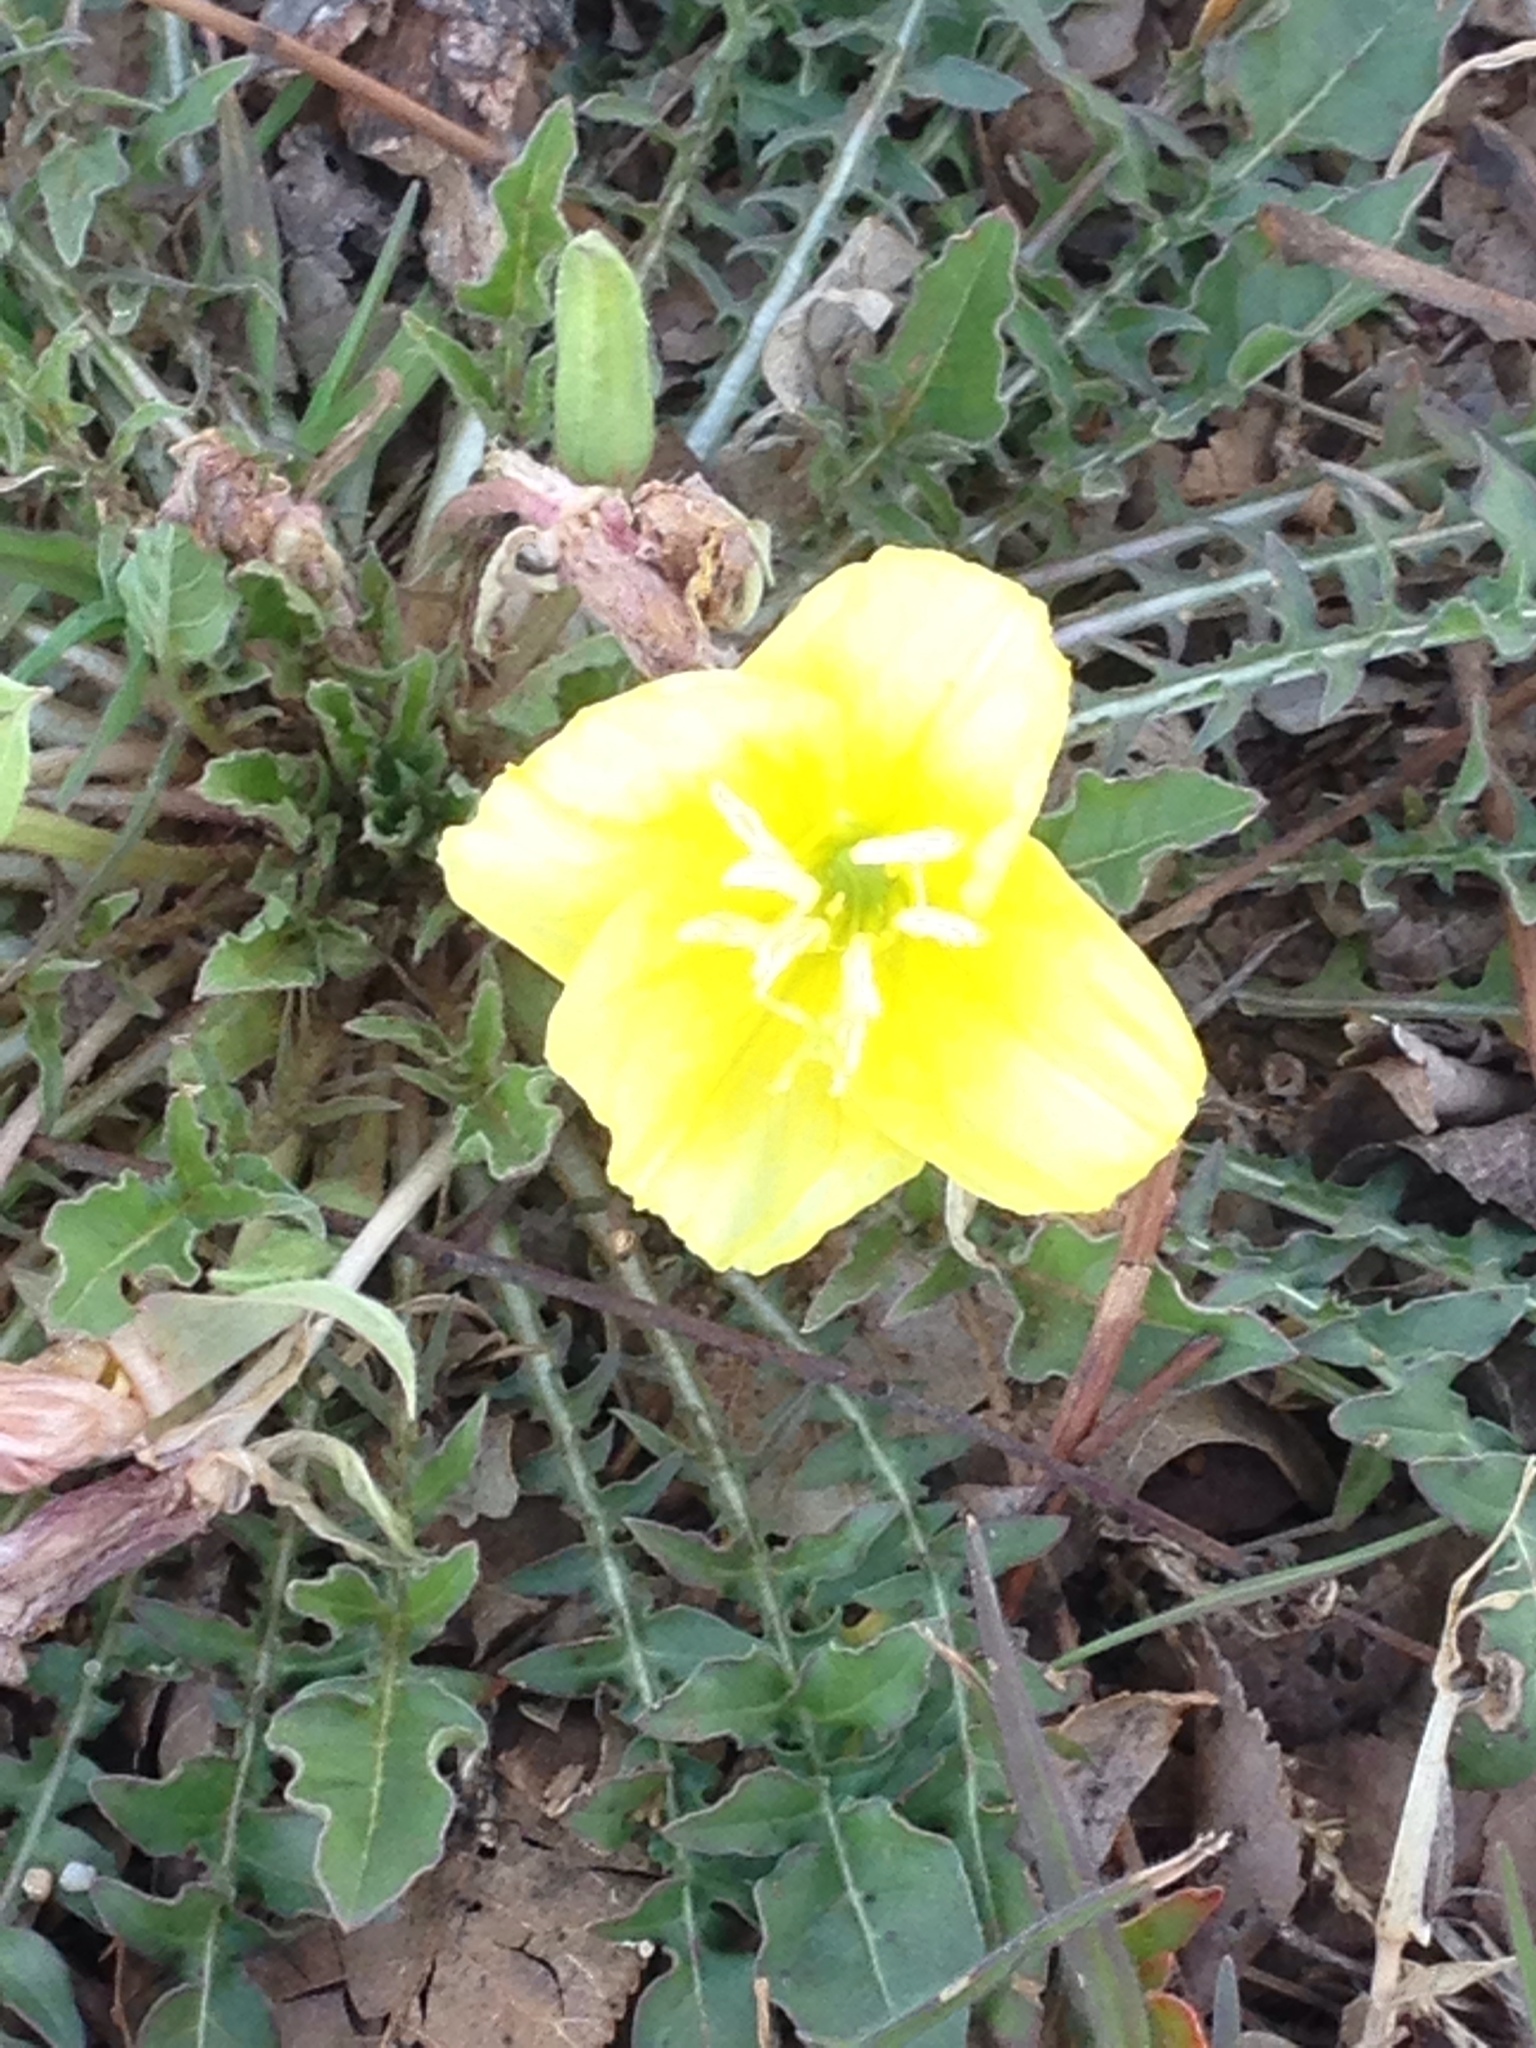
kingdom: Plantae
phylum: Tracheophyta
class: Magnoliopsida
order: Myrtales
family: Onagraceae
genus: Oenothera
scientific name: Oenothera triloba
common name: Sessile evening-primrose
